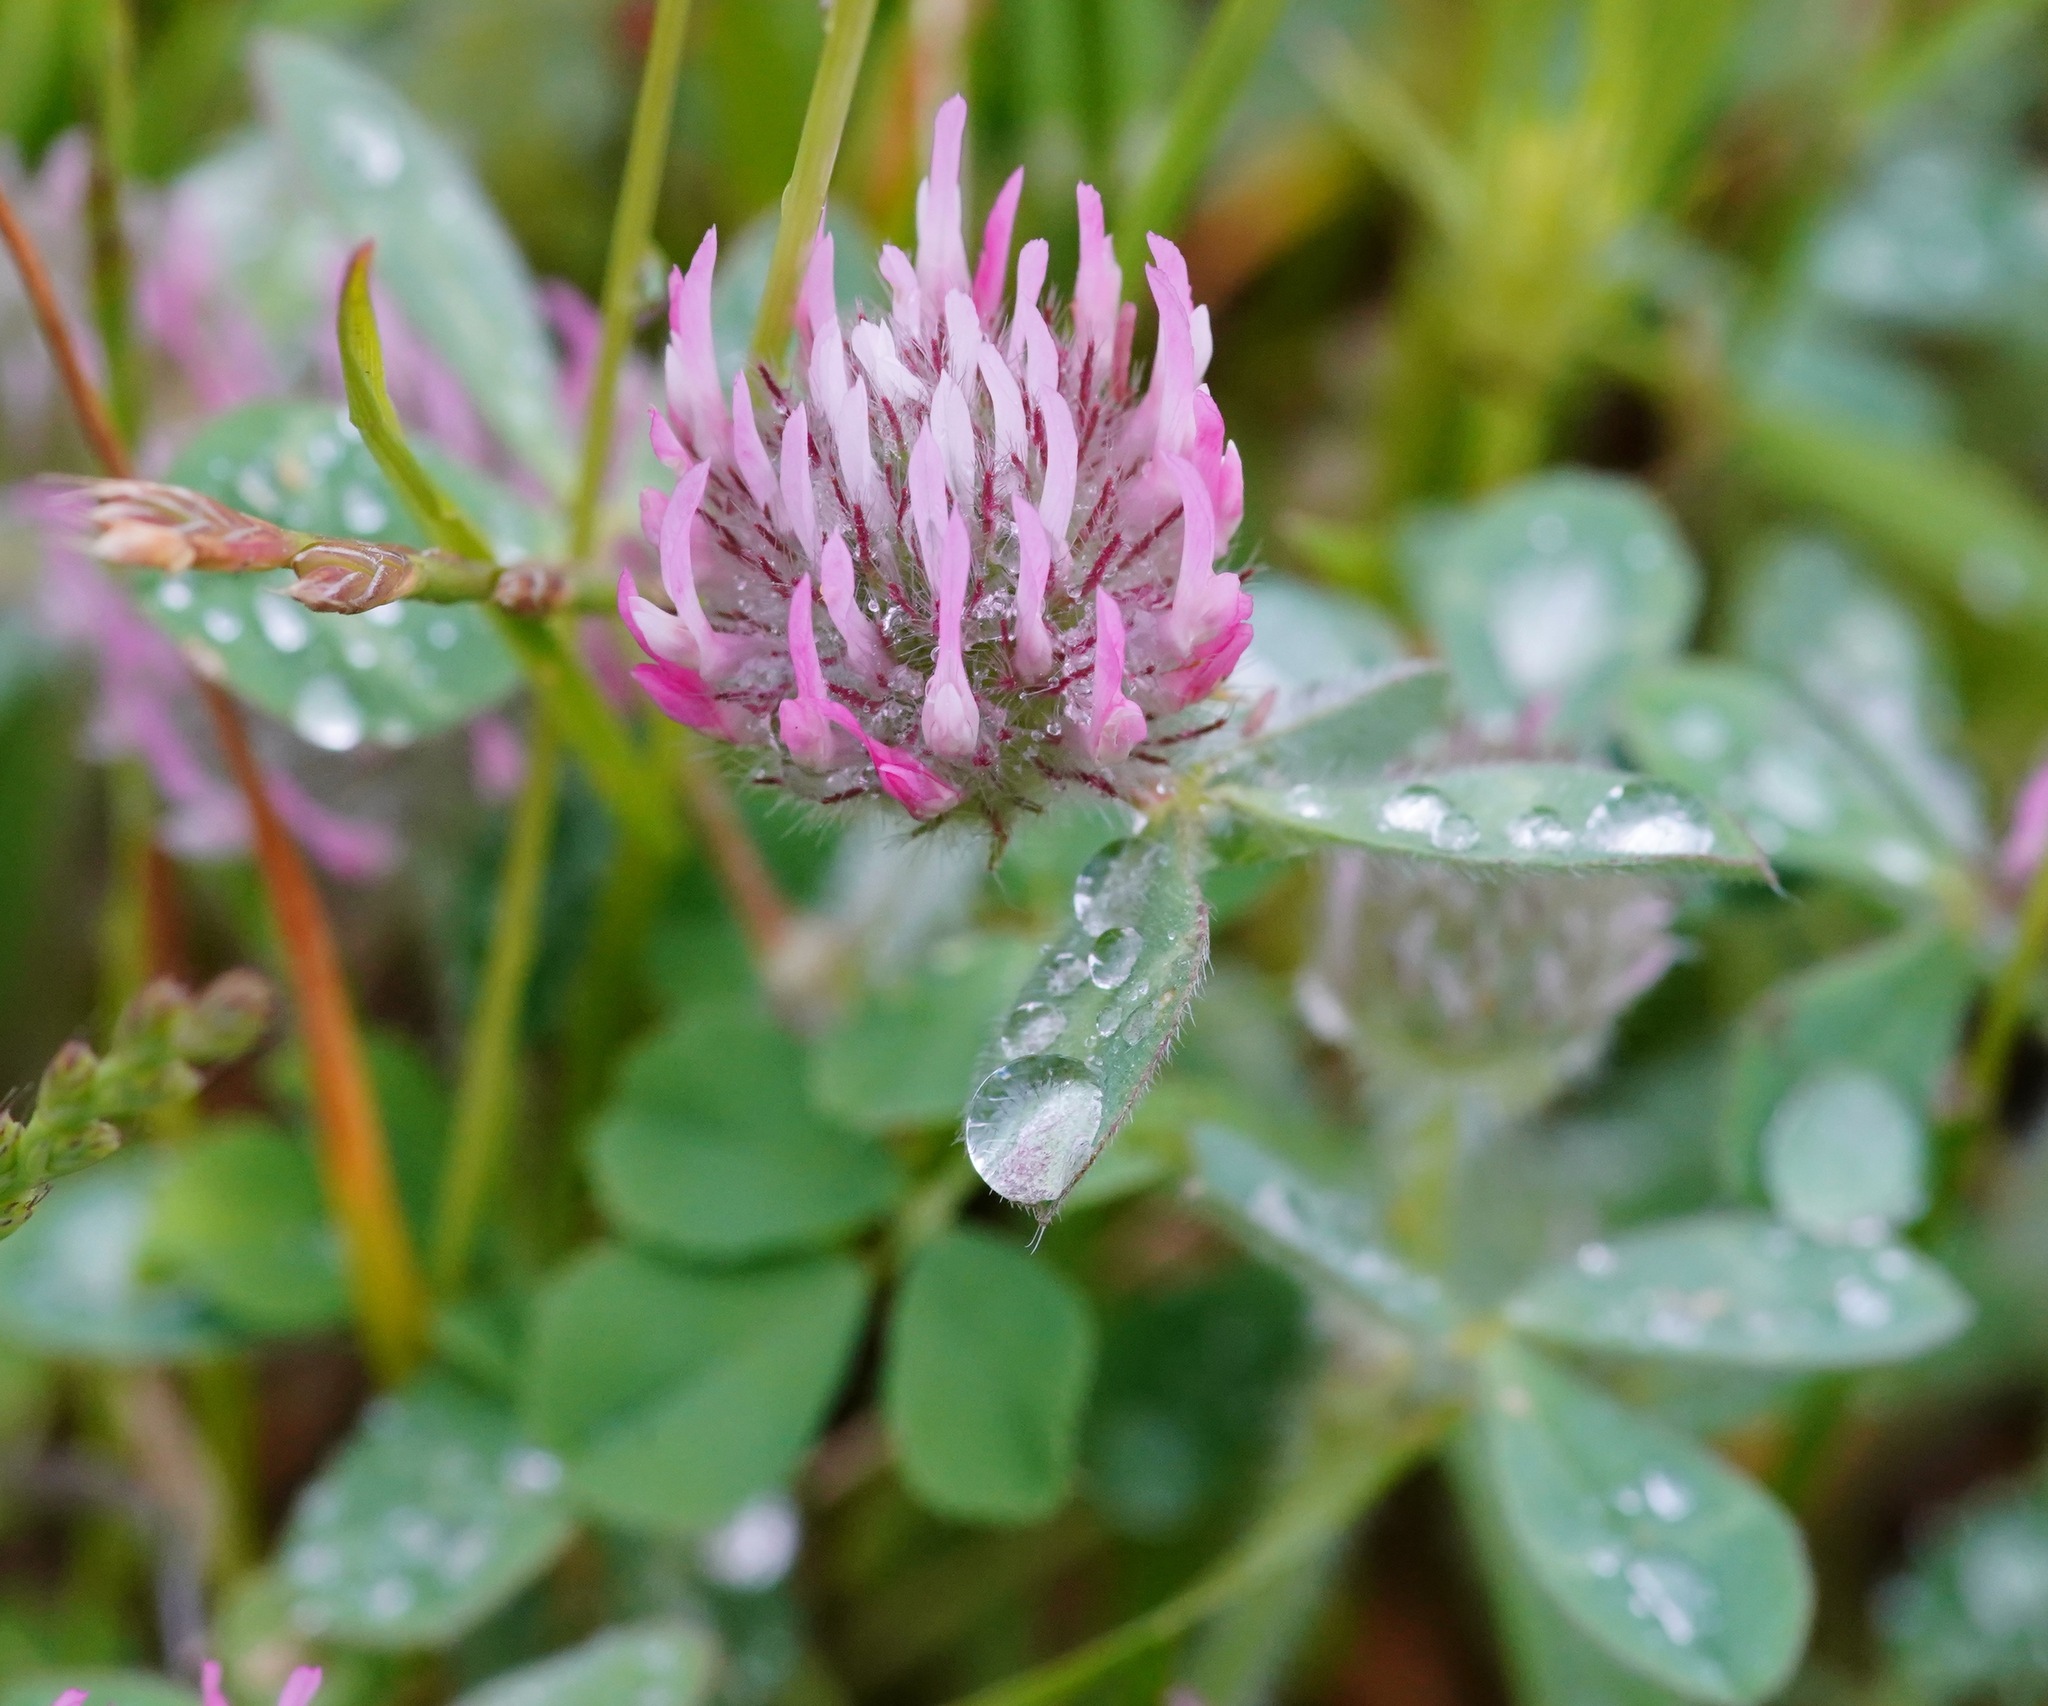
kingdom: Plantae
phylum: Tracheophyta
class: Magnoliopsida
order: Fabales
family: Fabaceae
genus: Trifolium
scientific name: Trifolium hirtum
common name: Rose clover
